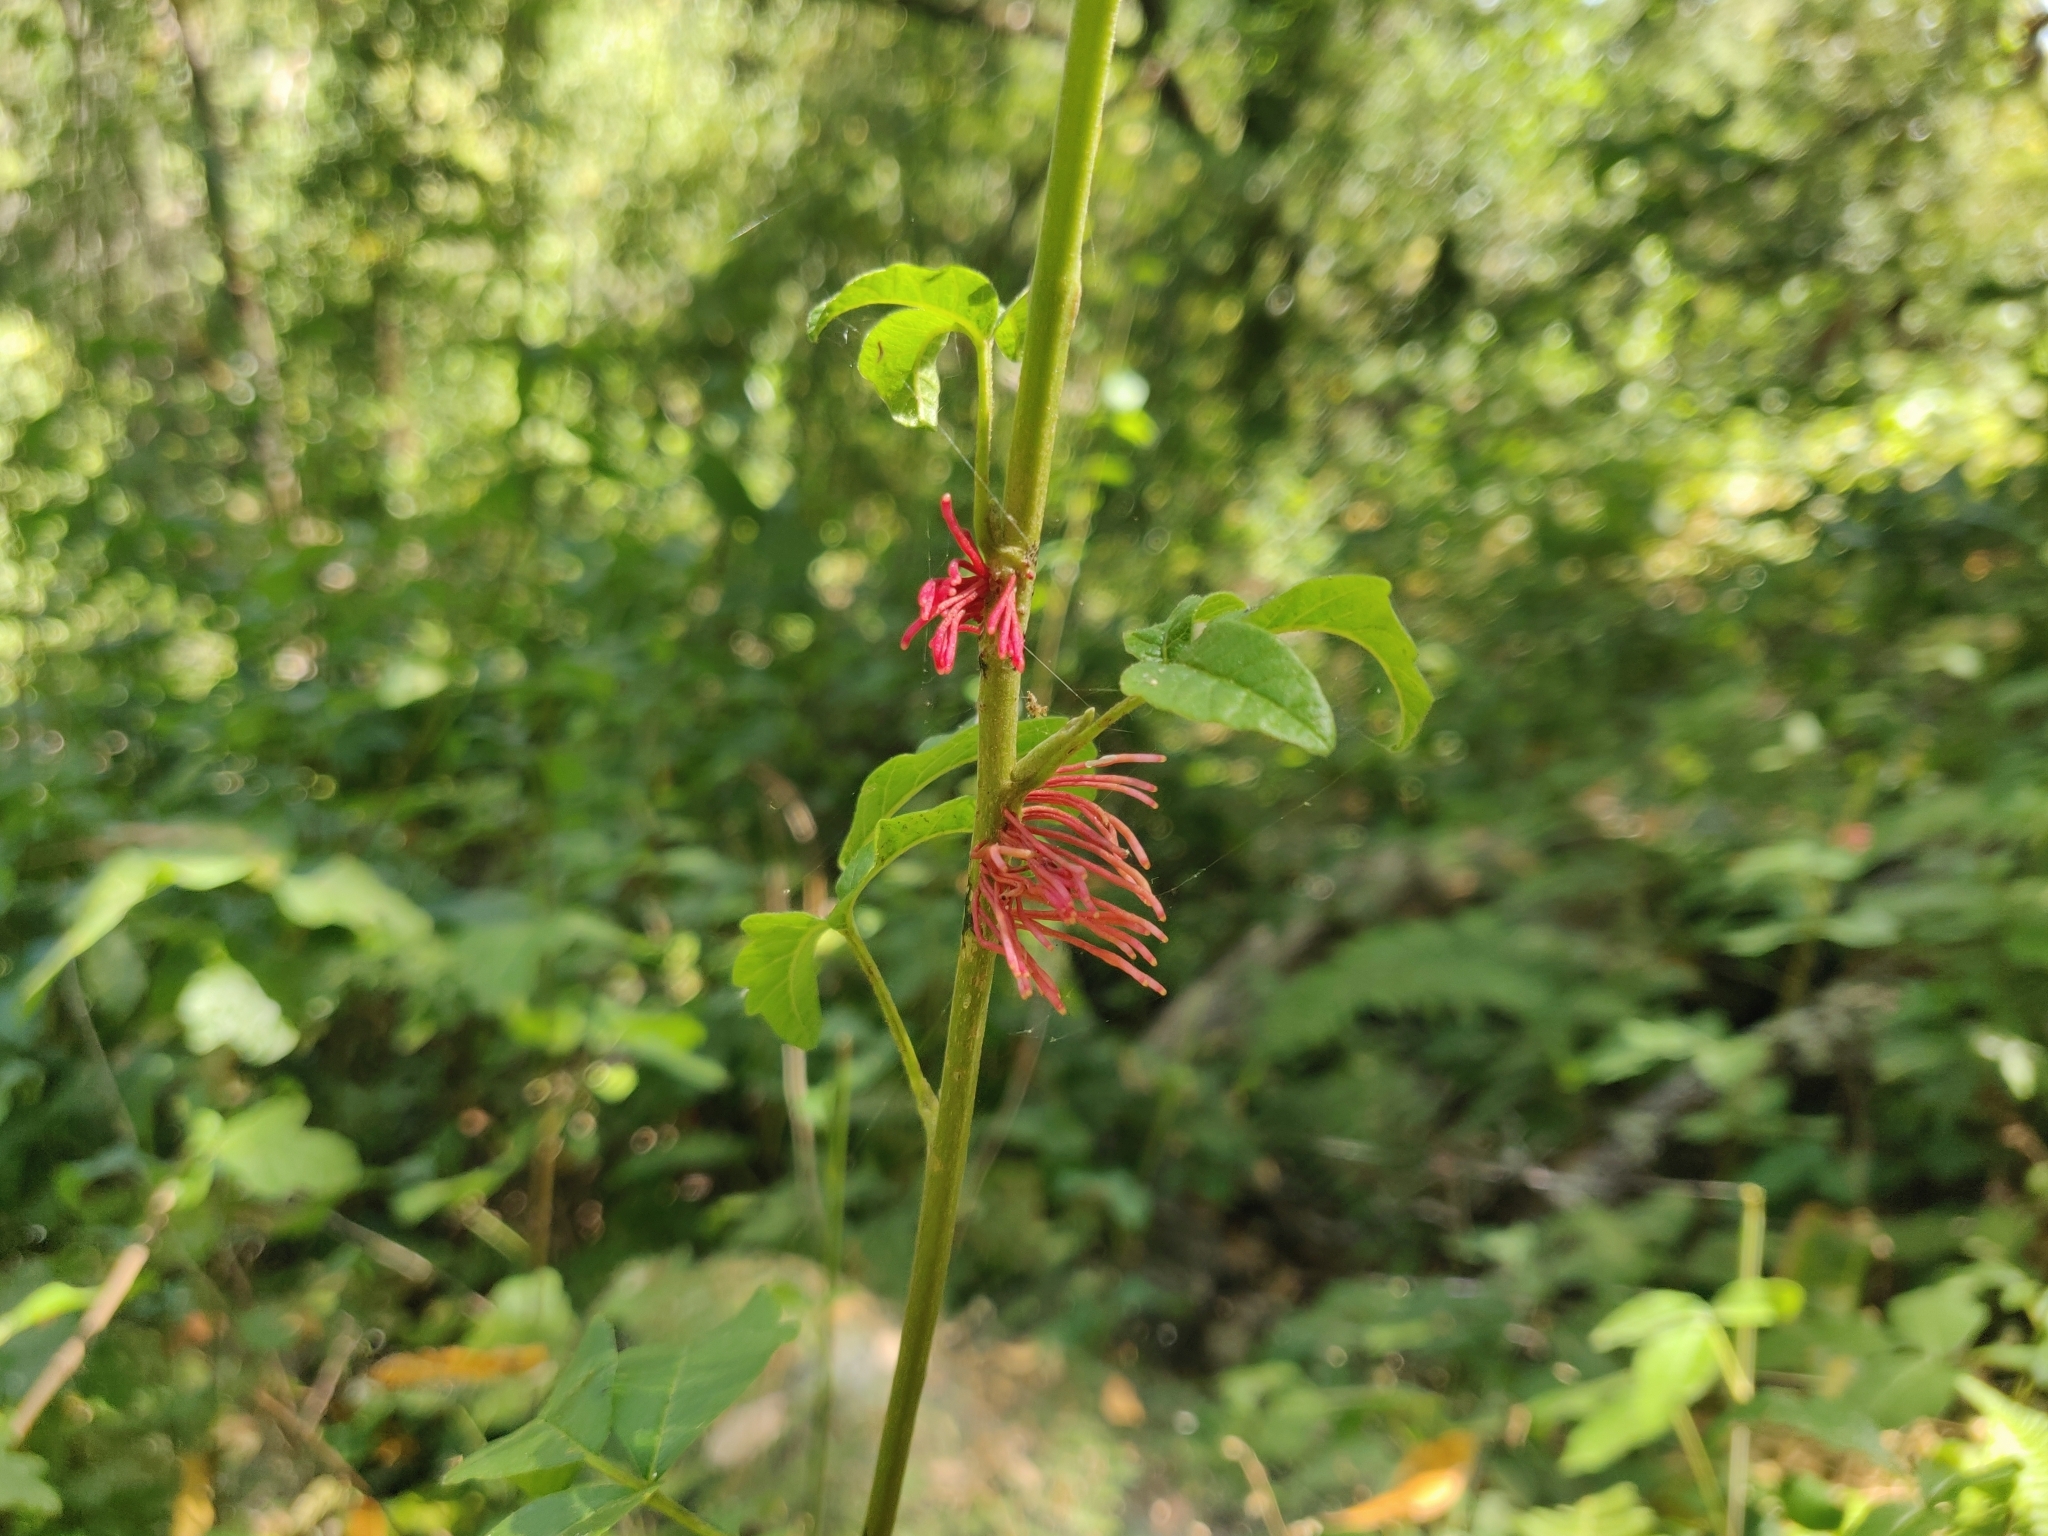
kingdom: Plantae
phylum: Tracheophyta
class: Magnoliopsida
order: Sapindales
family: Anacardiaceae
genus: Toxicodendron
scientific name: Toxicodendron diversilobum
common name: Pacific poison-oak
